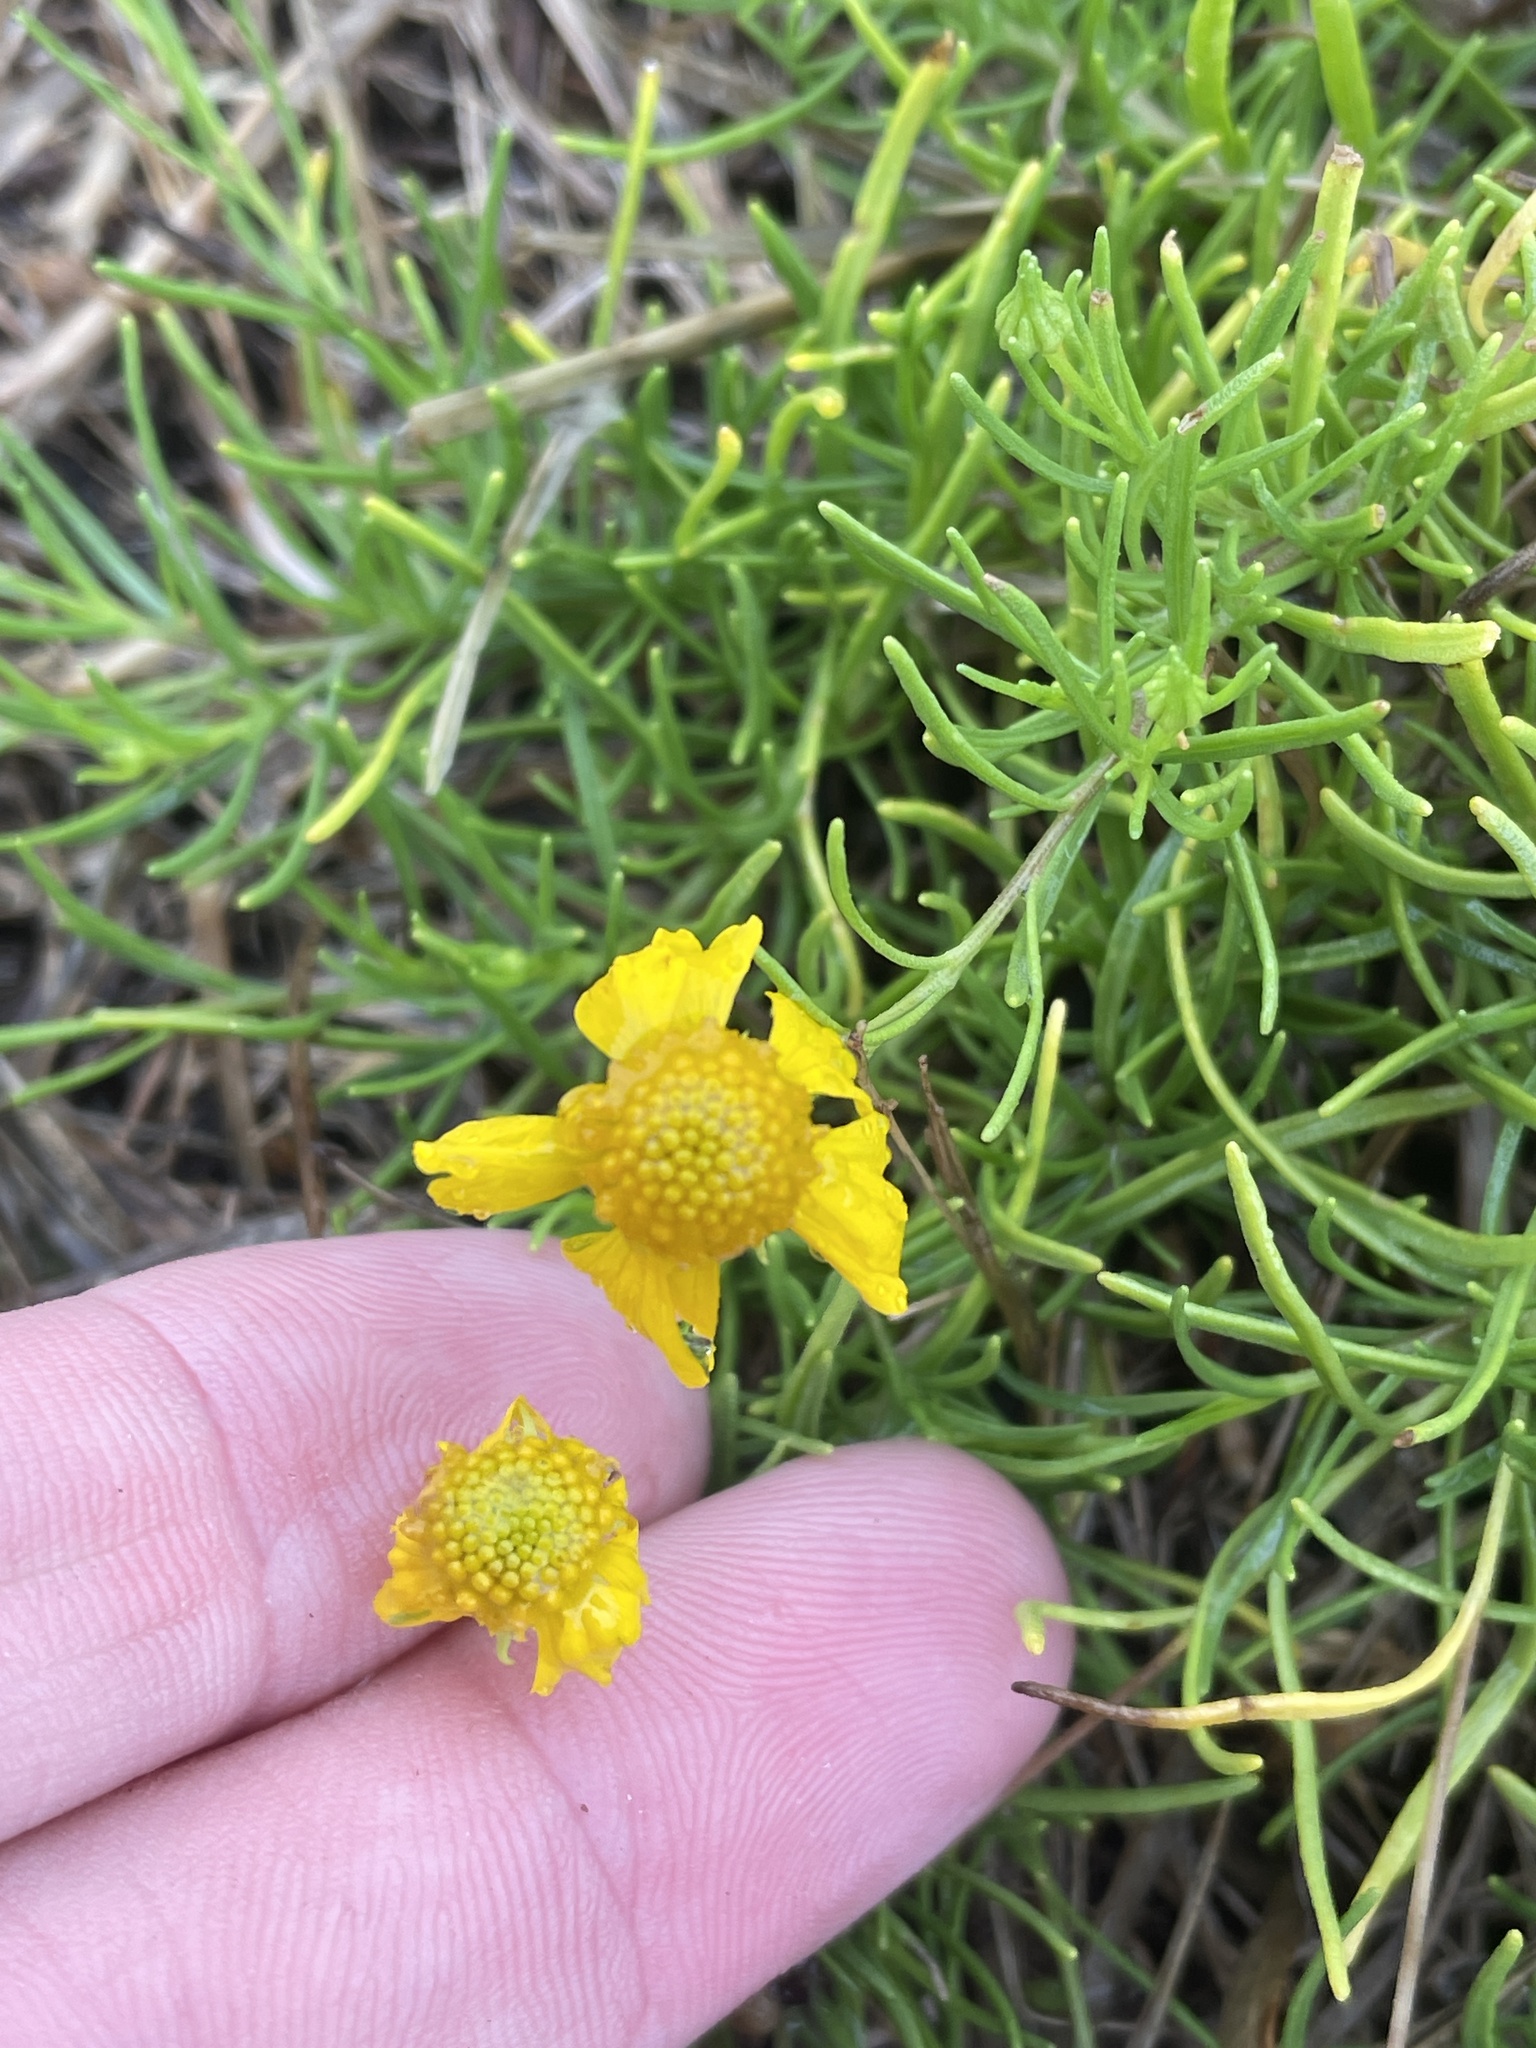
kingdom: Plantae
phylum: Tracheophyta
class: Magnoliopsida
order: Asterales
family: Asteraceae
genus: Helenium
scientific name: Helenium amarum
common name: Bitter sneezeweed
